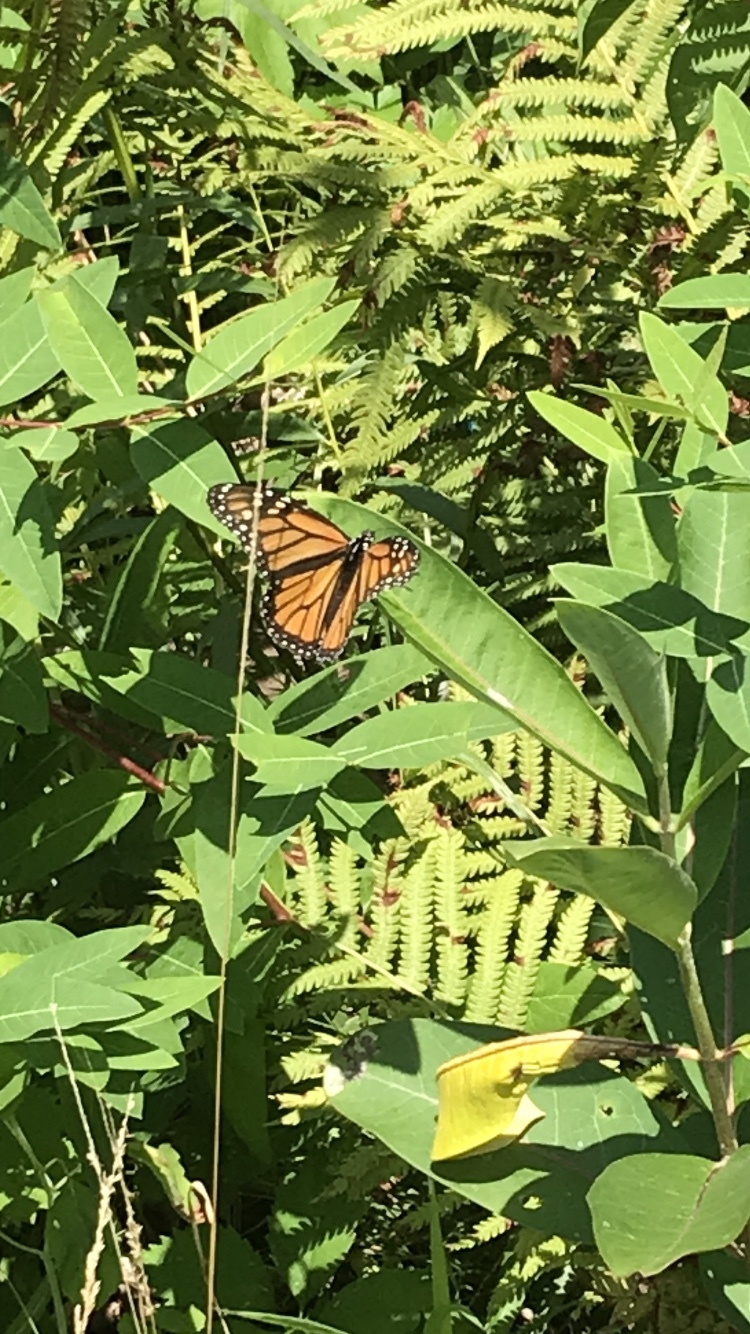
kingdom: Animalia
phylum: Arthropoda
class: Insecta
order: Lepidoptera
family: Nymphalidae
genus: Danaus
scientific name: Danaus plexippus
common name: Monarch
